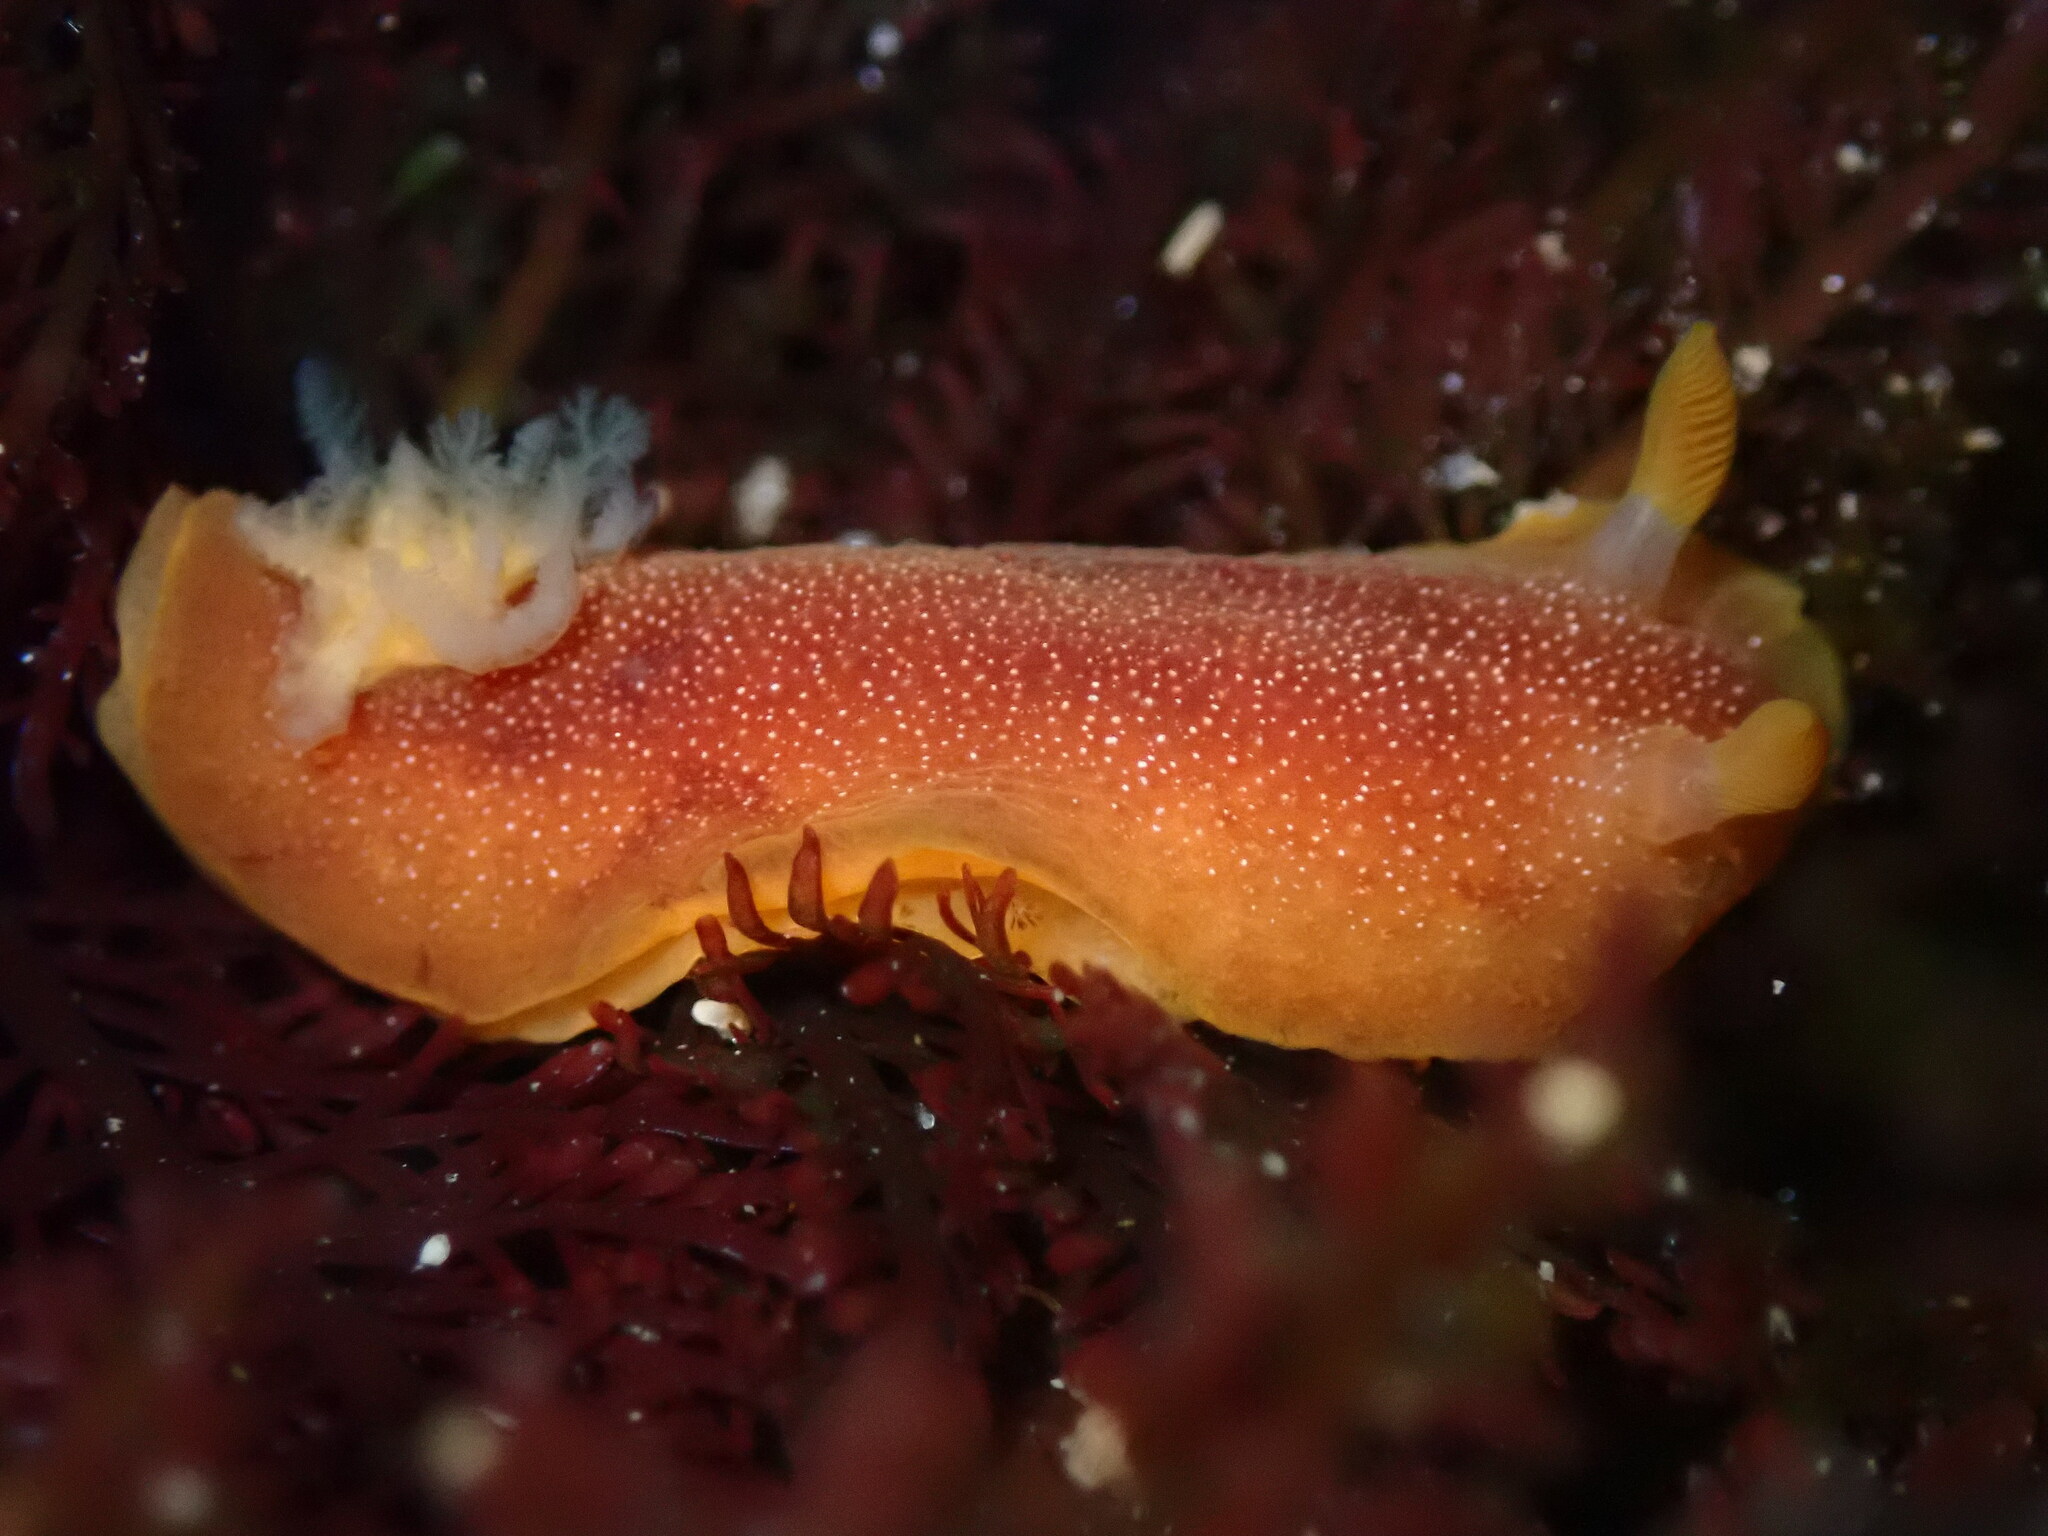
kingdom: Animalia
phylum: Mollusca
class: Gastropoda
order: Nudibranchia
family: Dendrodorididae
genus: Doriopsilla
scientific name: Doriopsilla albopunctata
